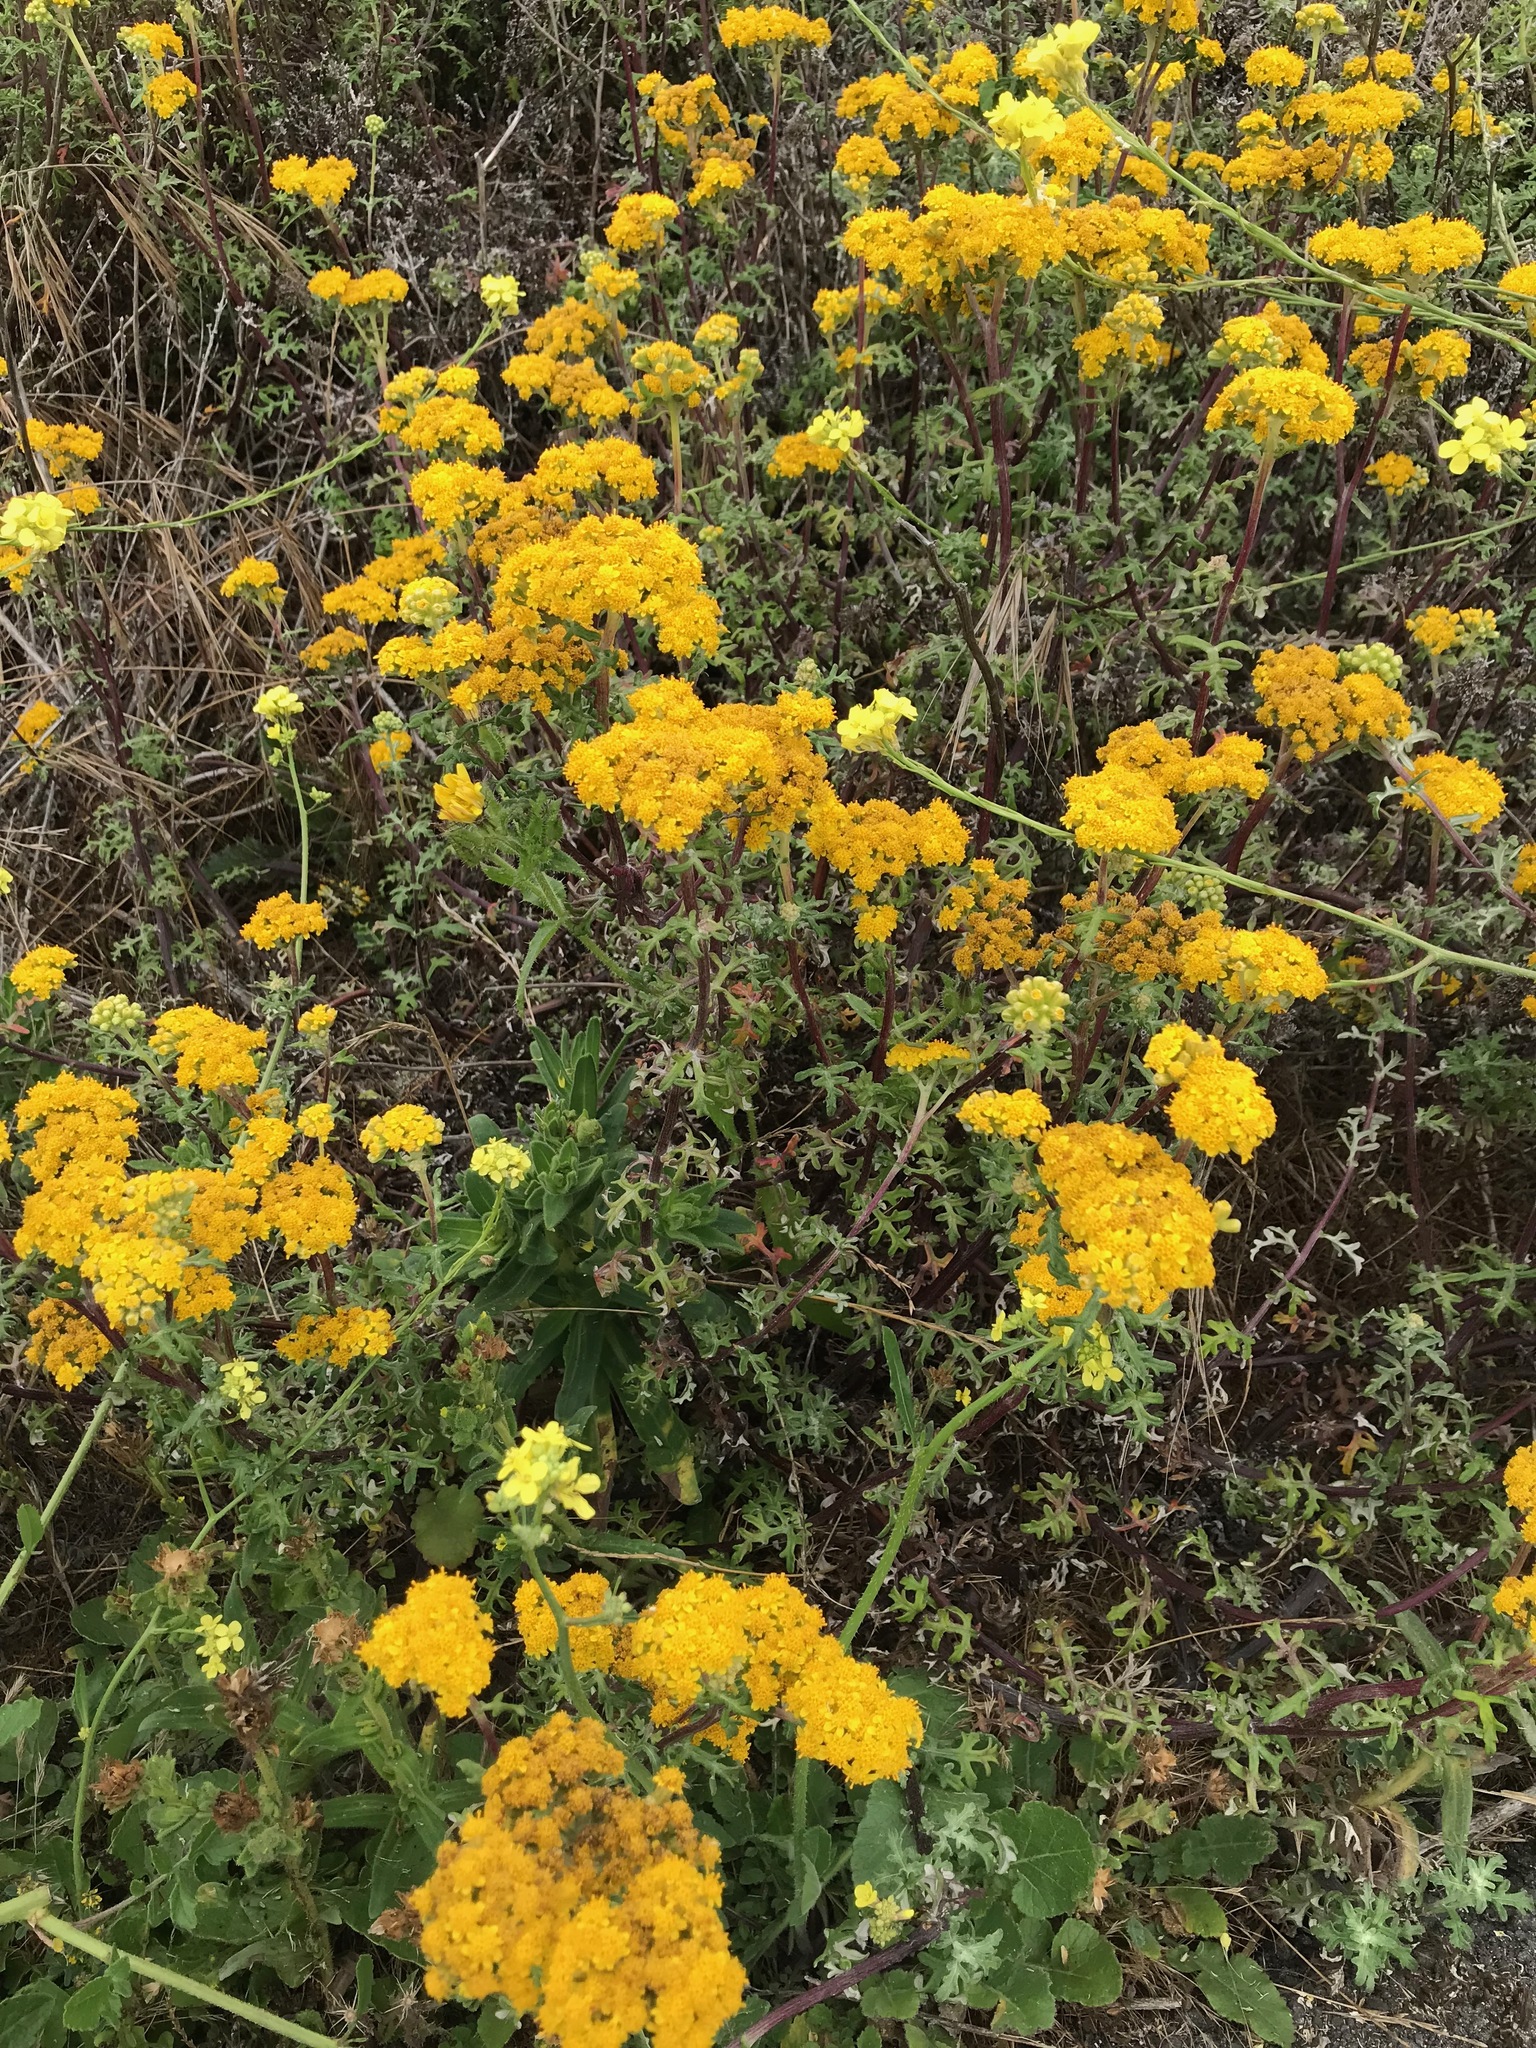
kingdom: Plantae
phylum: Tracheophyta
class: Magnoliopsida
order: Asterales
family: Asteraceae
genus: Eriophyllum
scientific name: Eriophyllum staechadifolium
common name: Lizardtail
